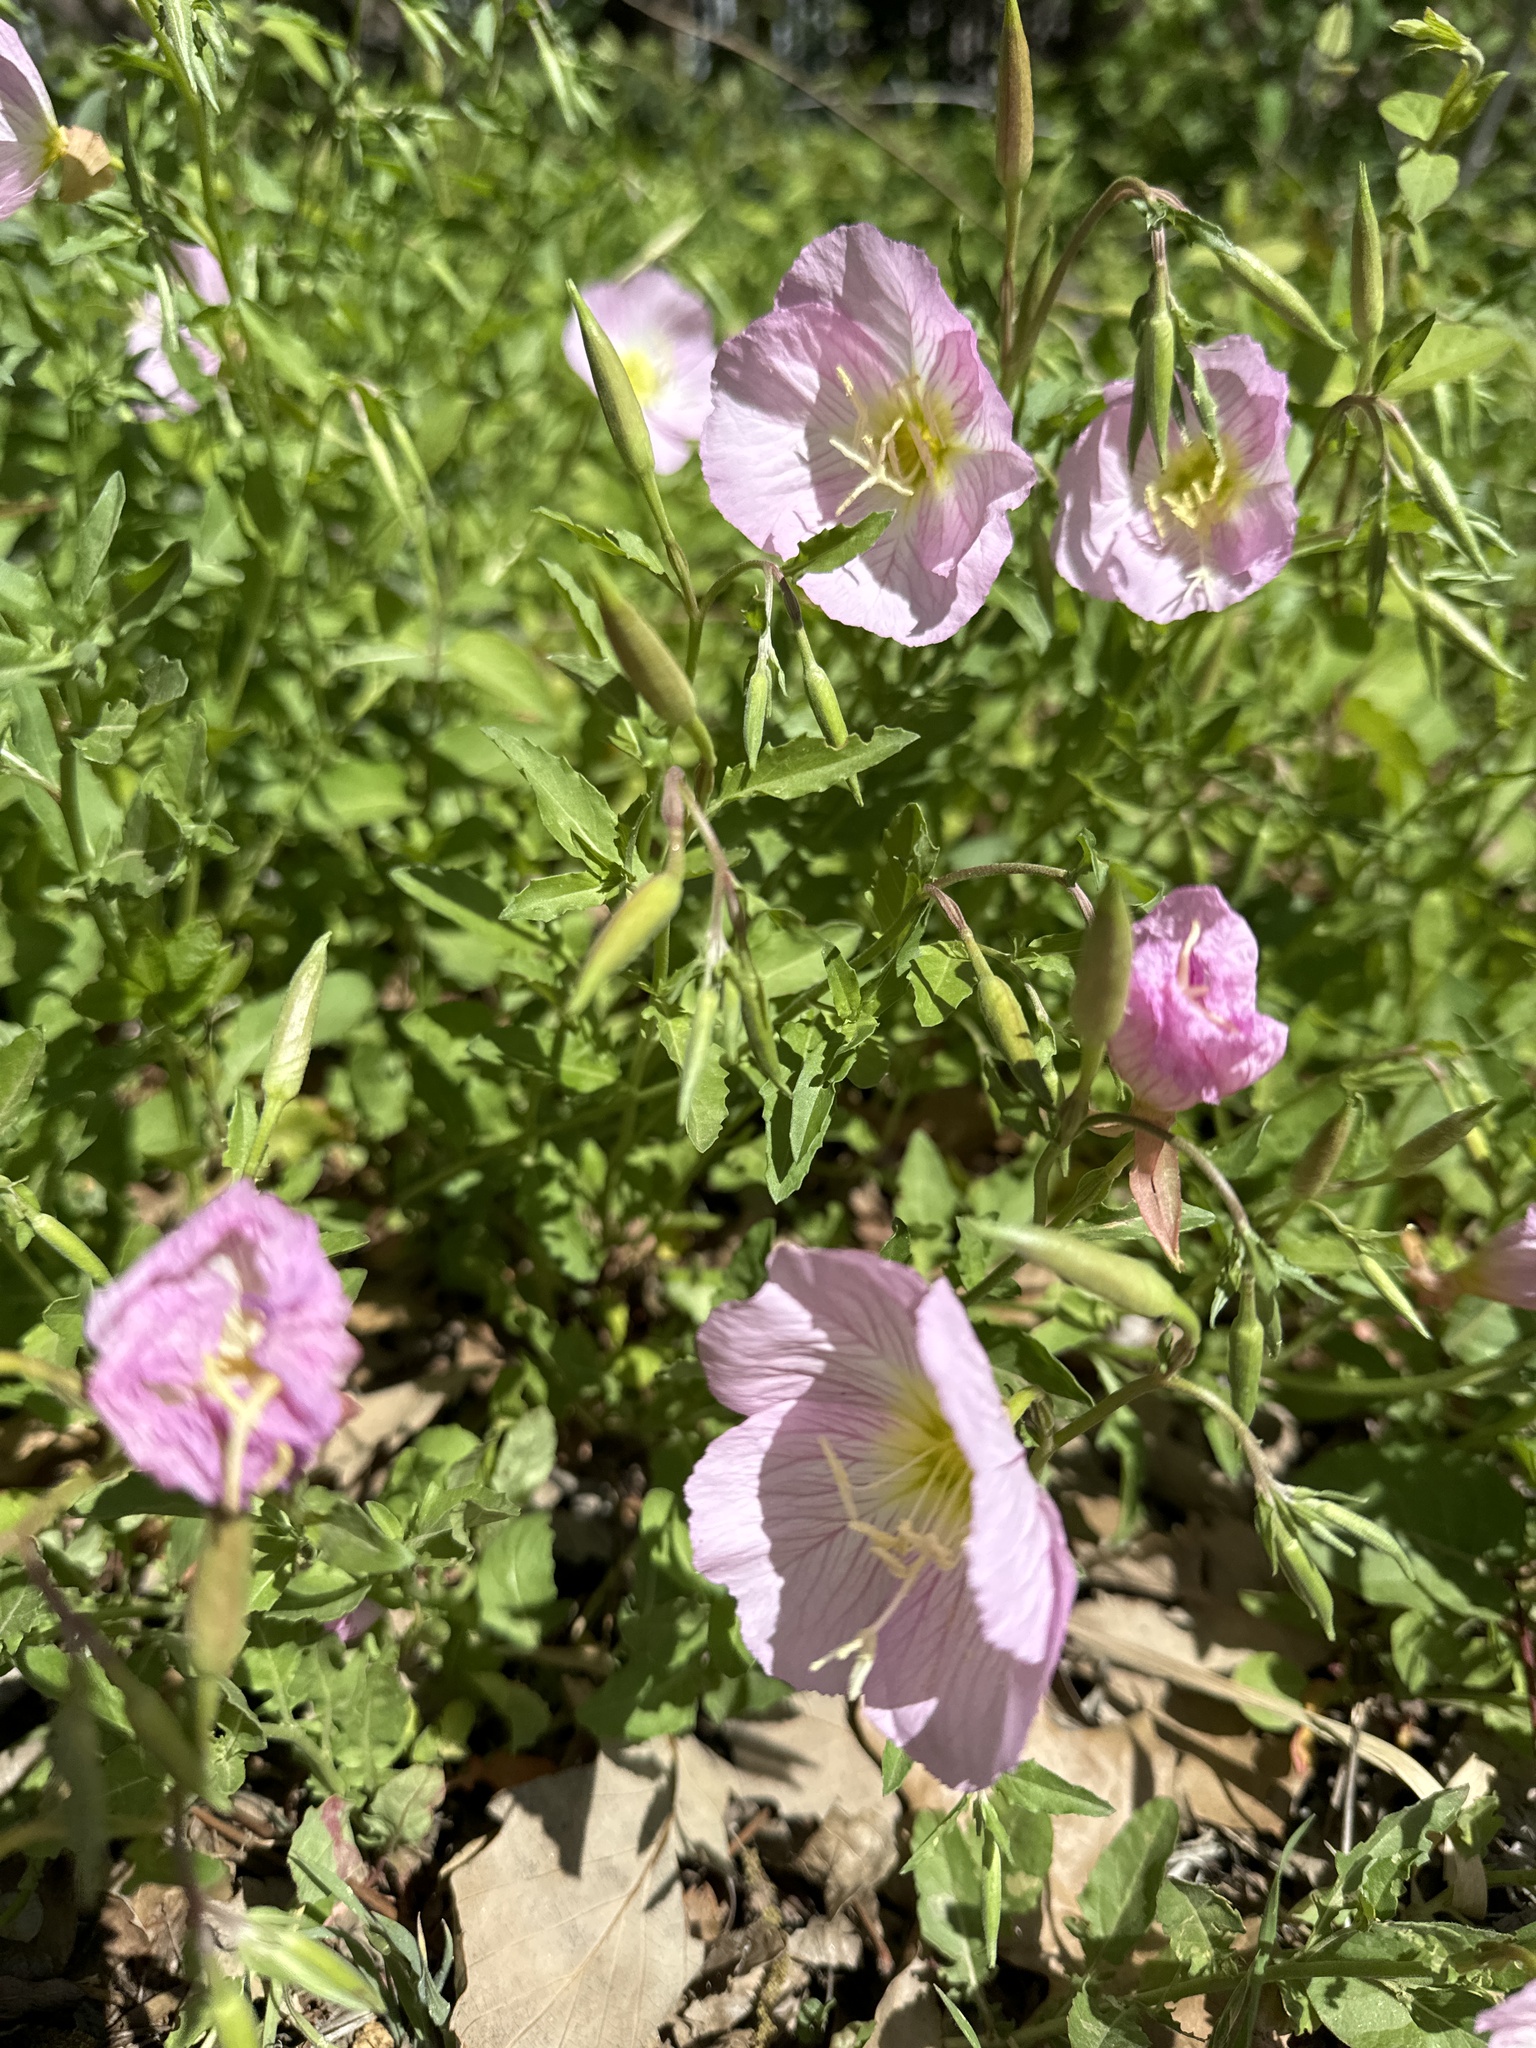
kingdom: Plantae
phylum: Tracheophyta
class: Magnoliopsida
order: Myrtales
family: Onagraceae
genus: Oenothera
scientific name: Oenothera speciosa
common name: White evening-primrose
